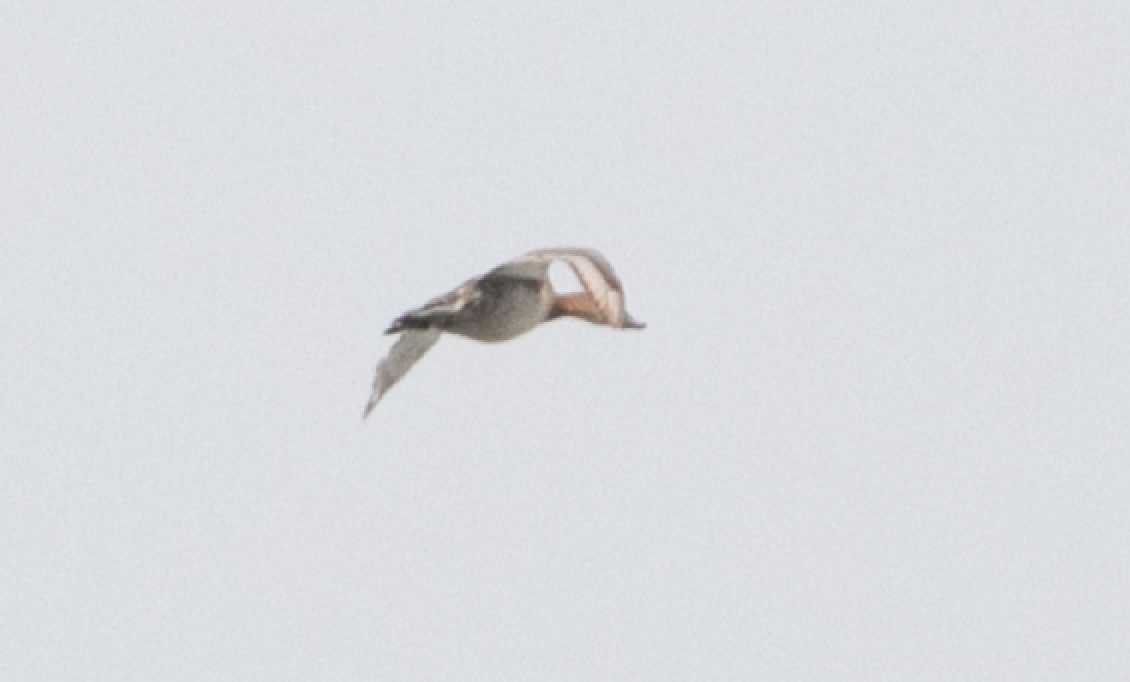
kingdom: Animalia
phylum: Chordata
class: Aves
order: Anseriformes
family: Anatidae
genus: Aythya
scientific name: Aythya ferina
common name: Common pochard
